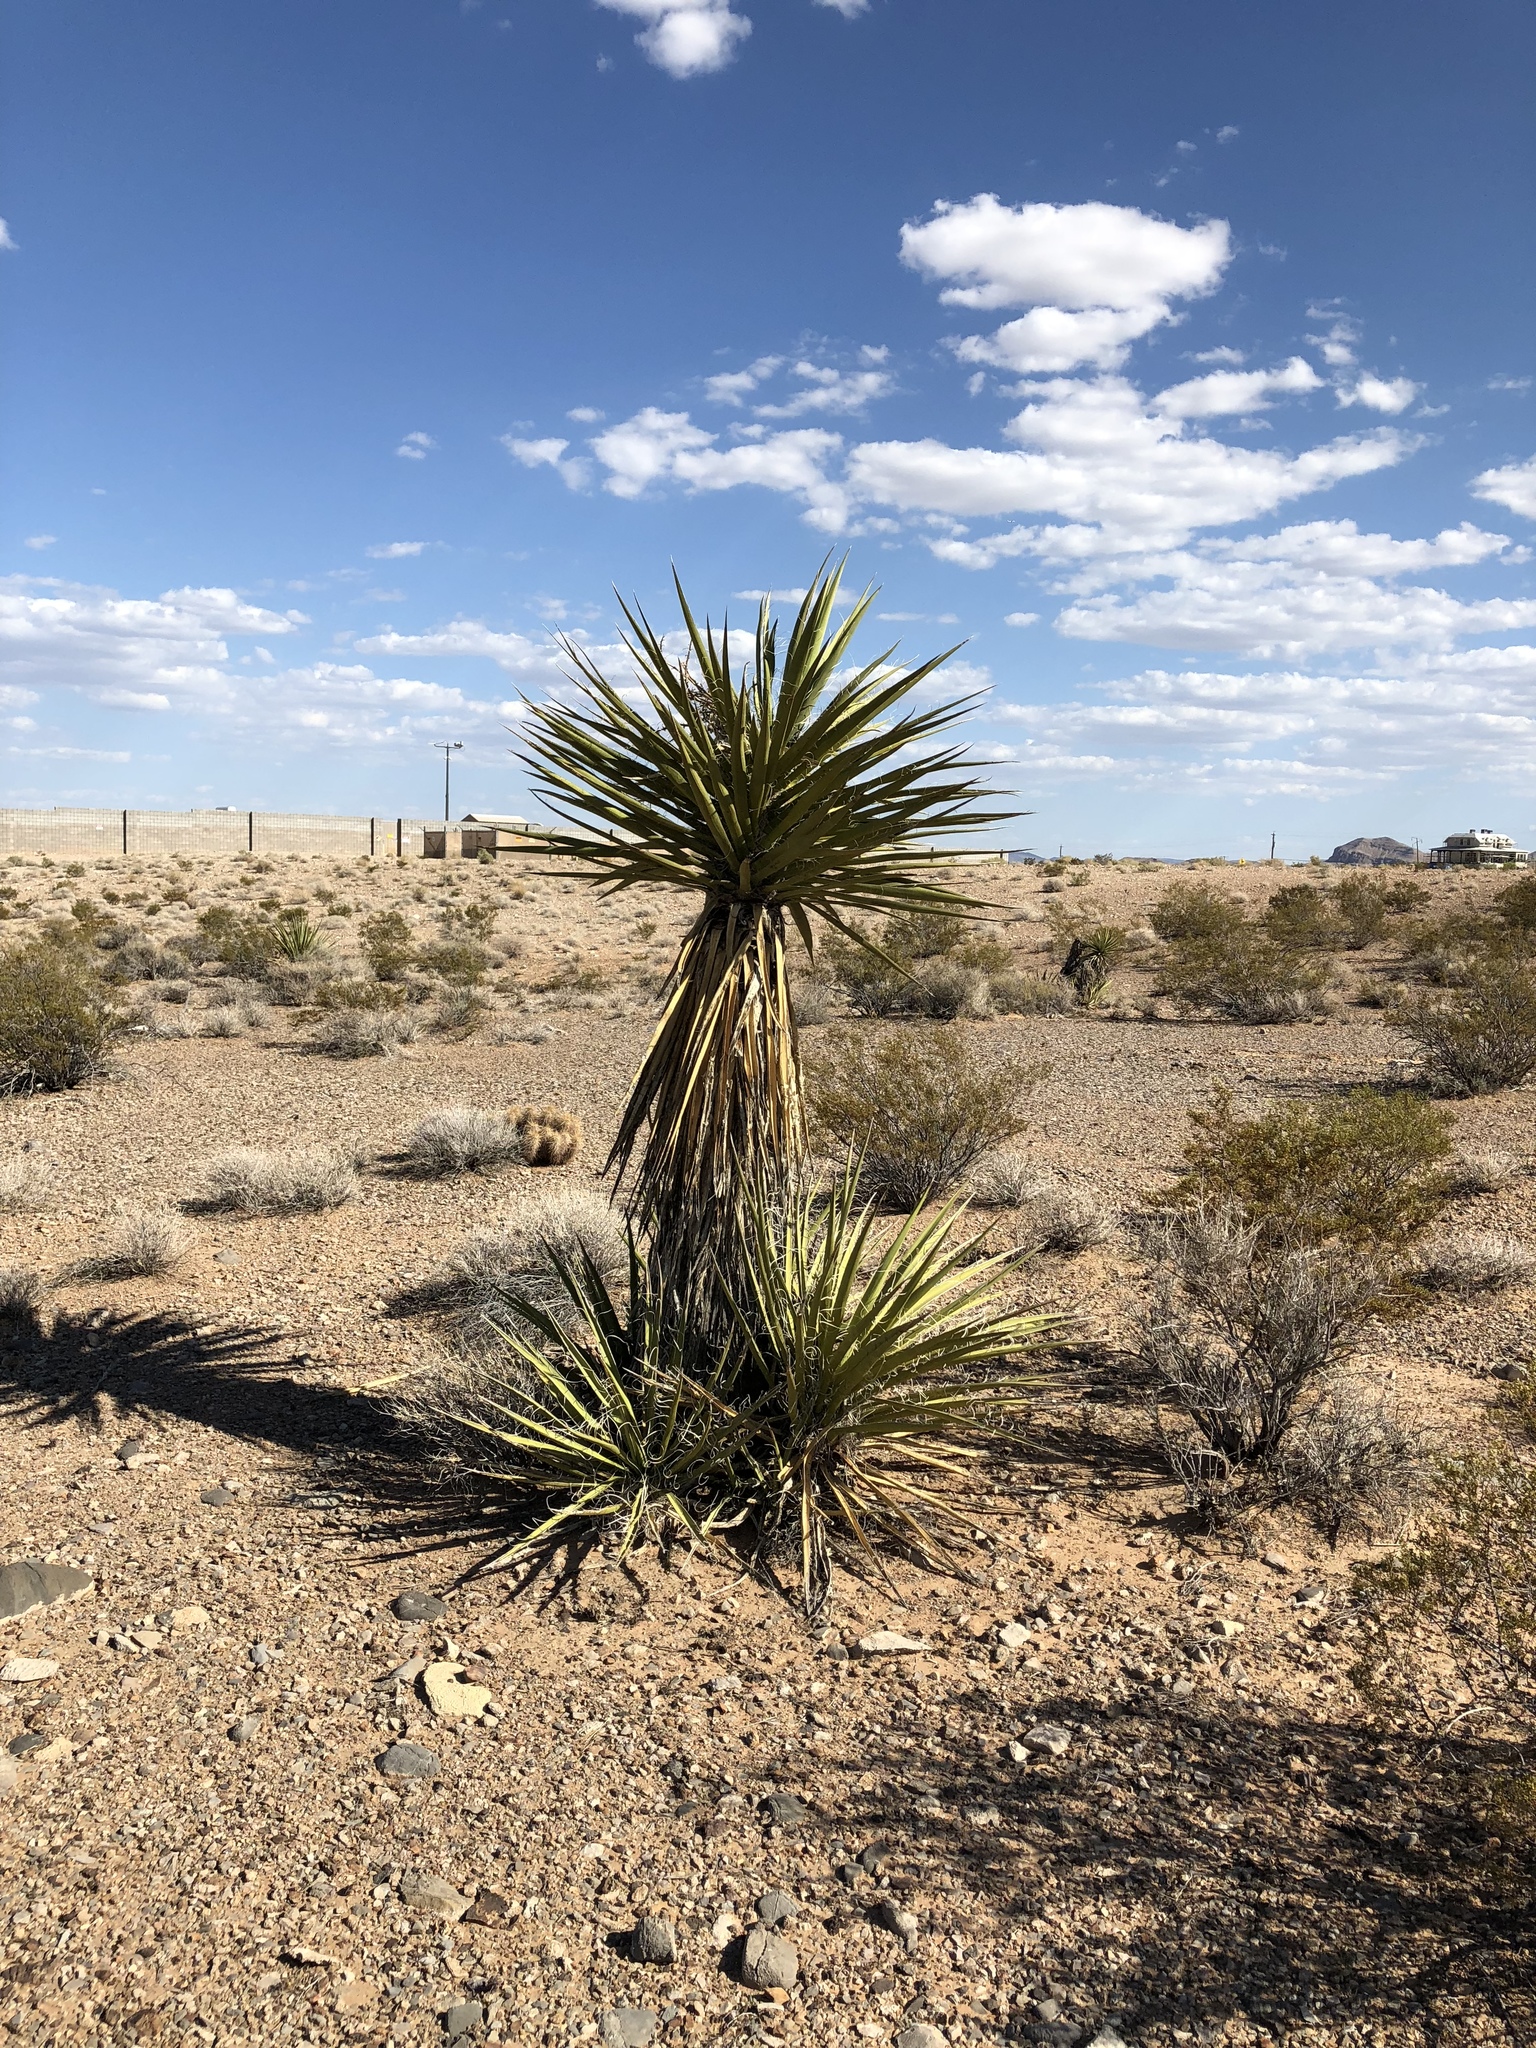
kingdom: Plantae
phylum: Tracheophyta
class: Liliopsida
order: Asparagales
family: Asparagaceae
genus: Yucca
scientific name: Yucca schidigera
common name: Mojave yucca
